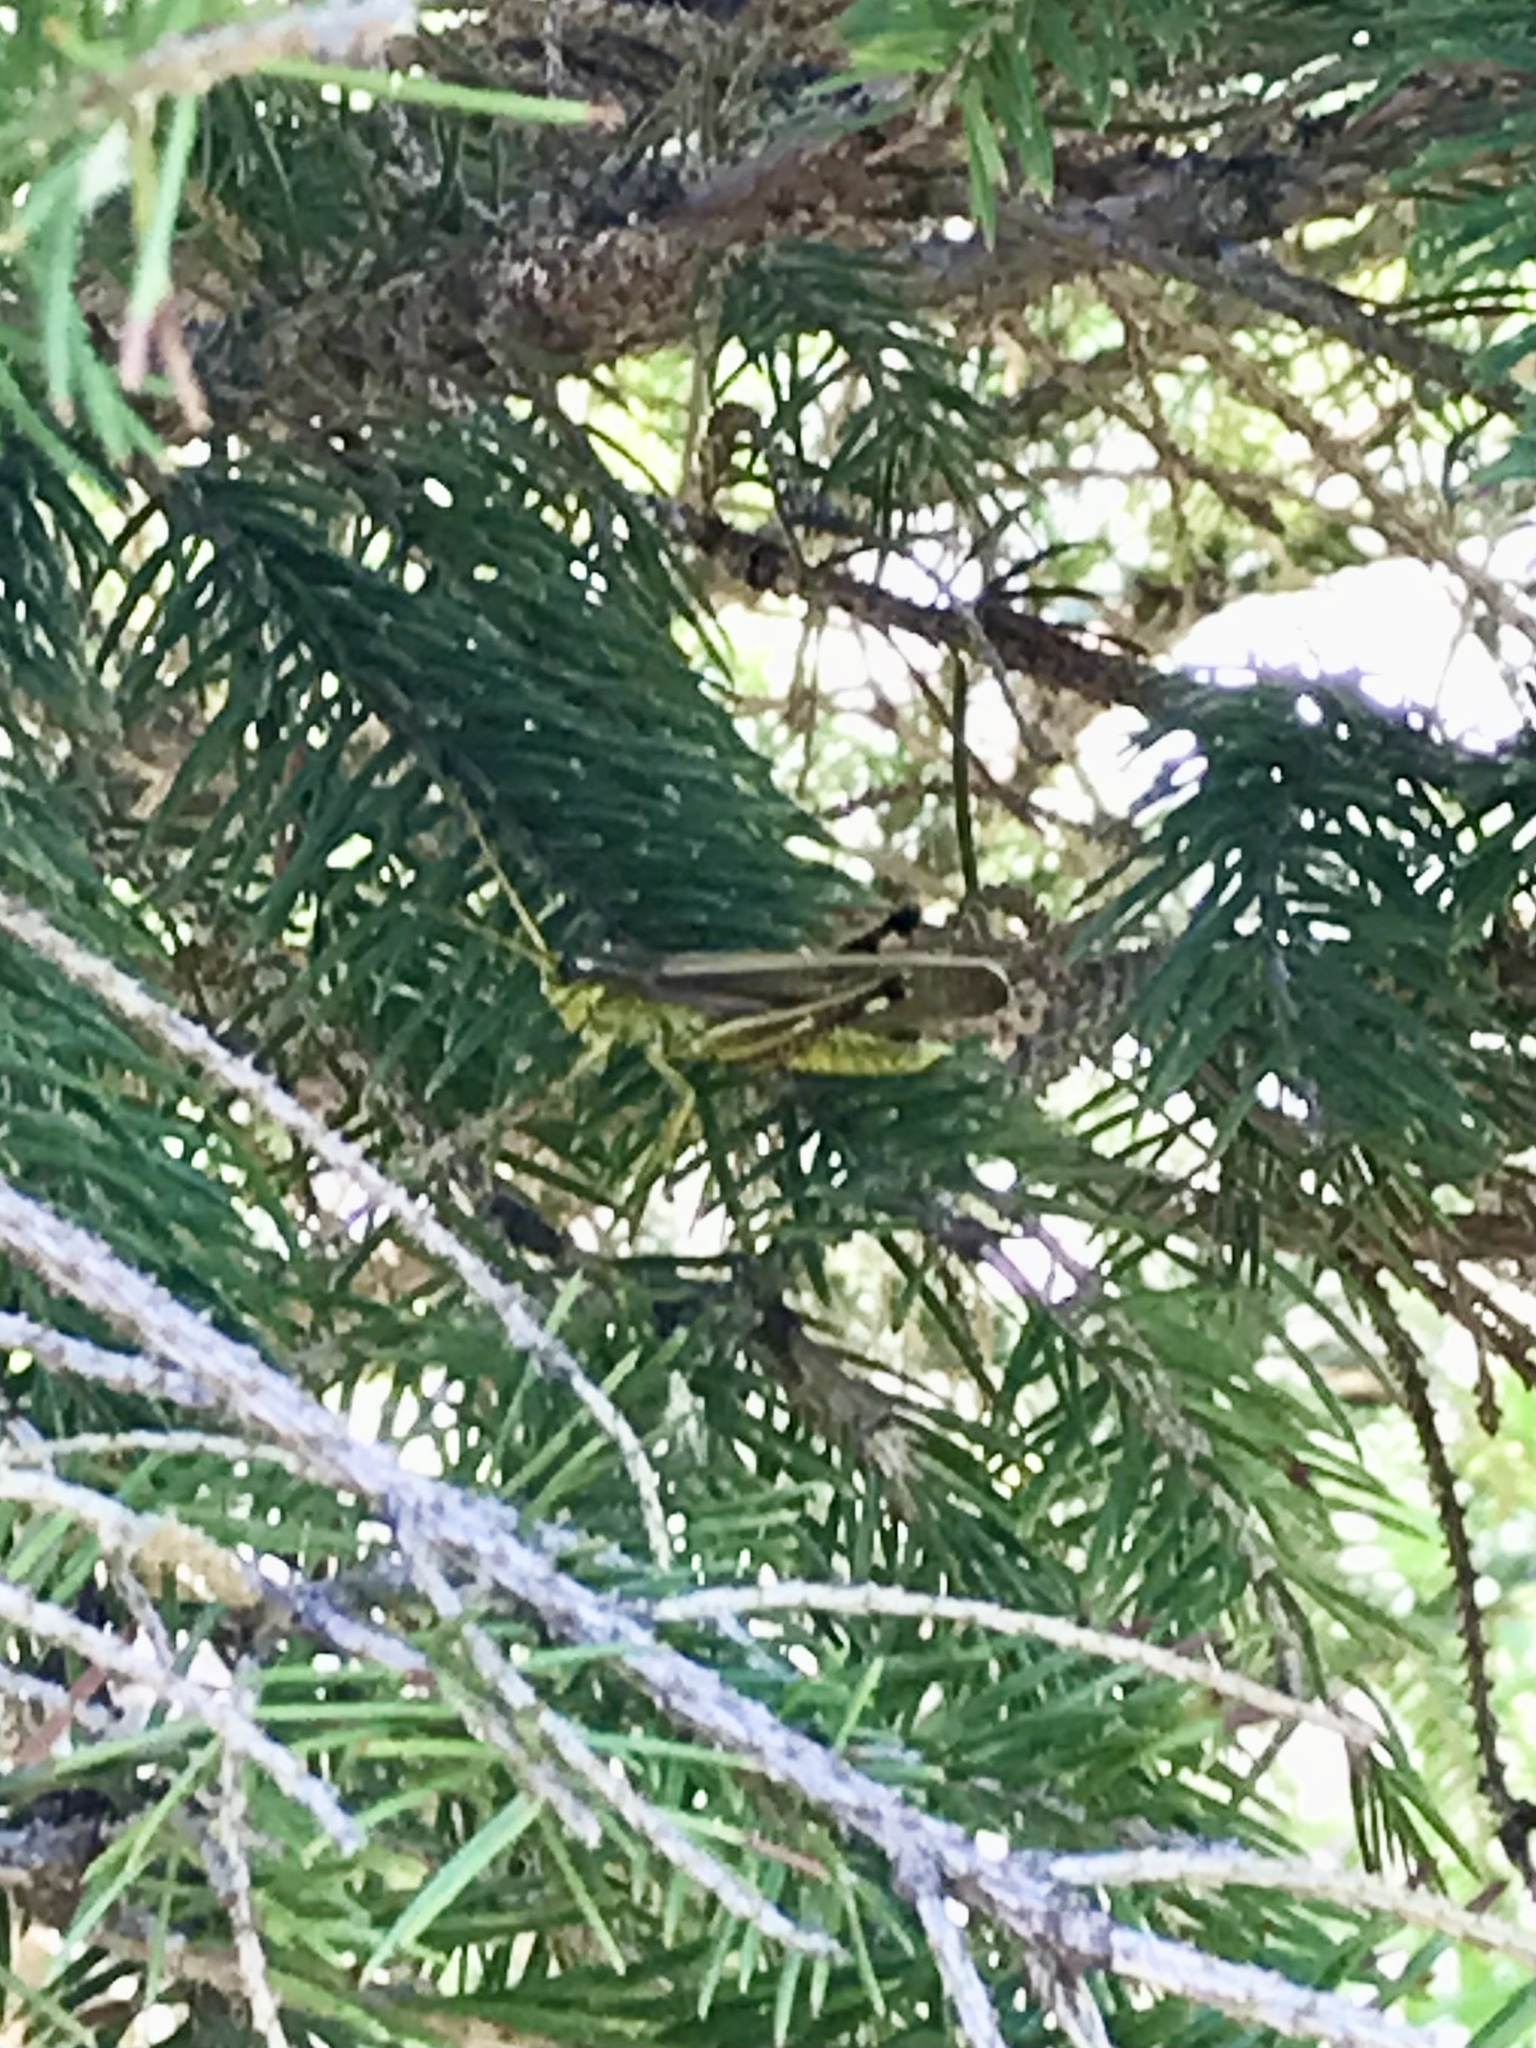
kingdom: Animalia
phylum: Arthropoda
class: Insecta
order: Orthoptera
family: Acrididae
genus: Stethophyma
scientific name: Stethophyma gracile
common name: Graceful sedge grasshopper
